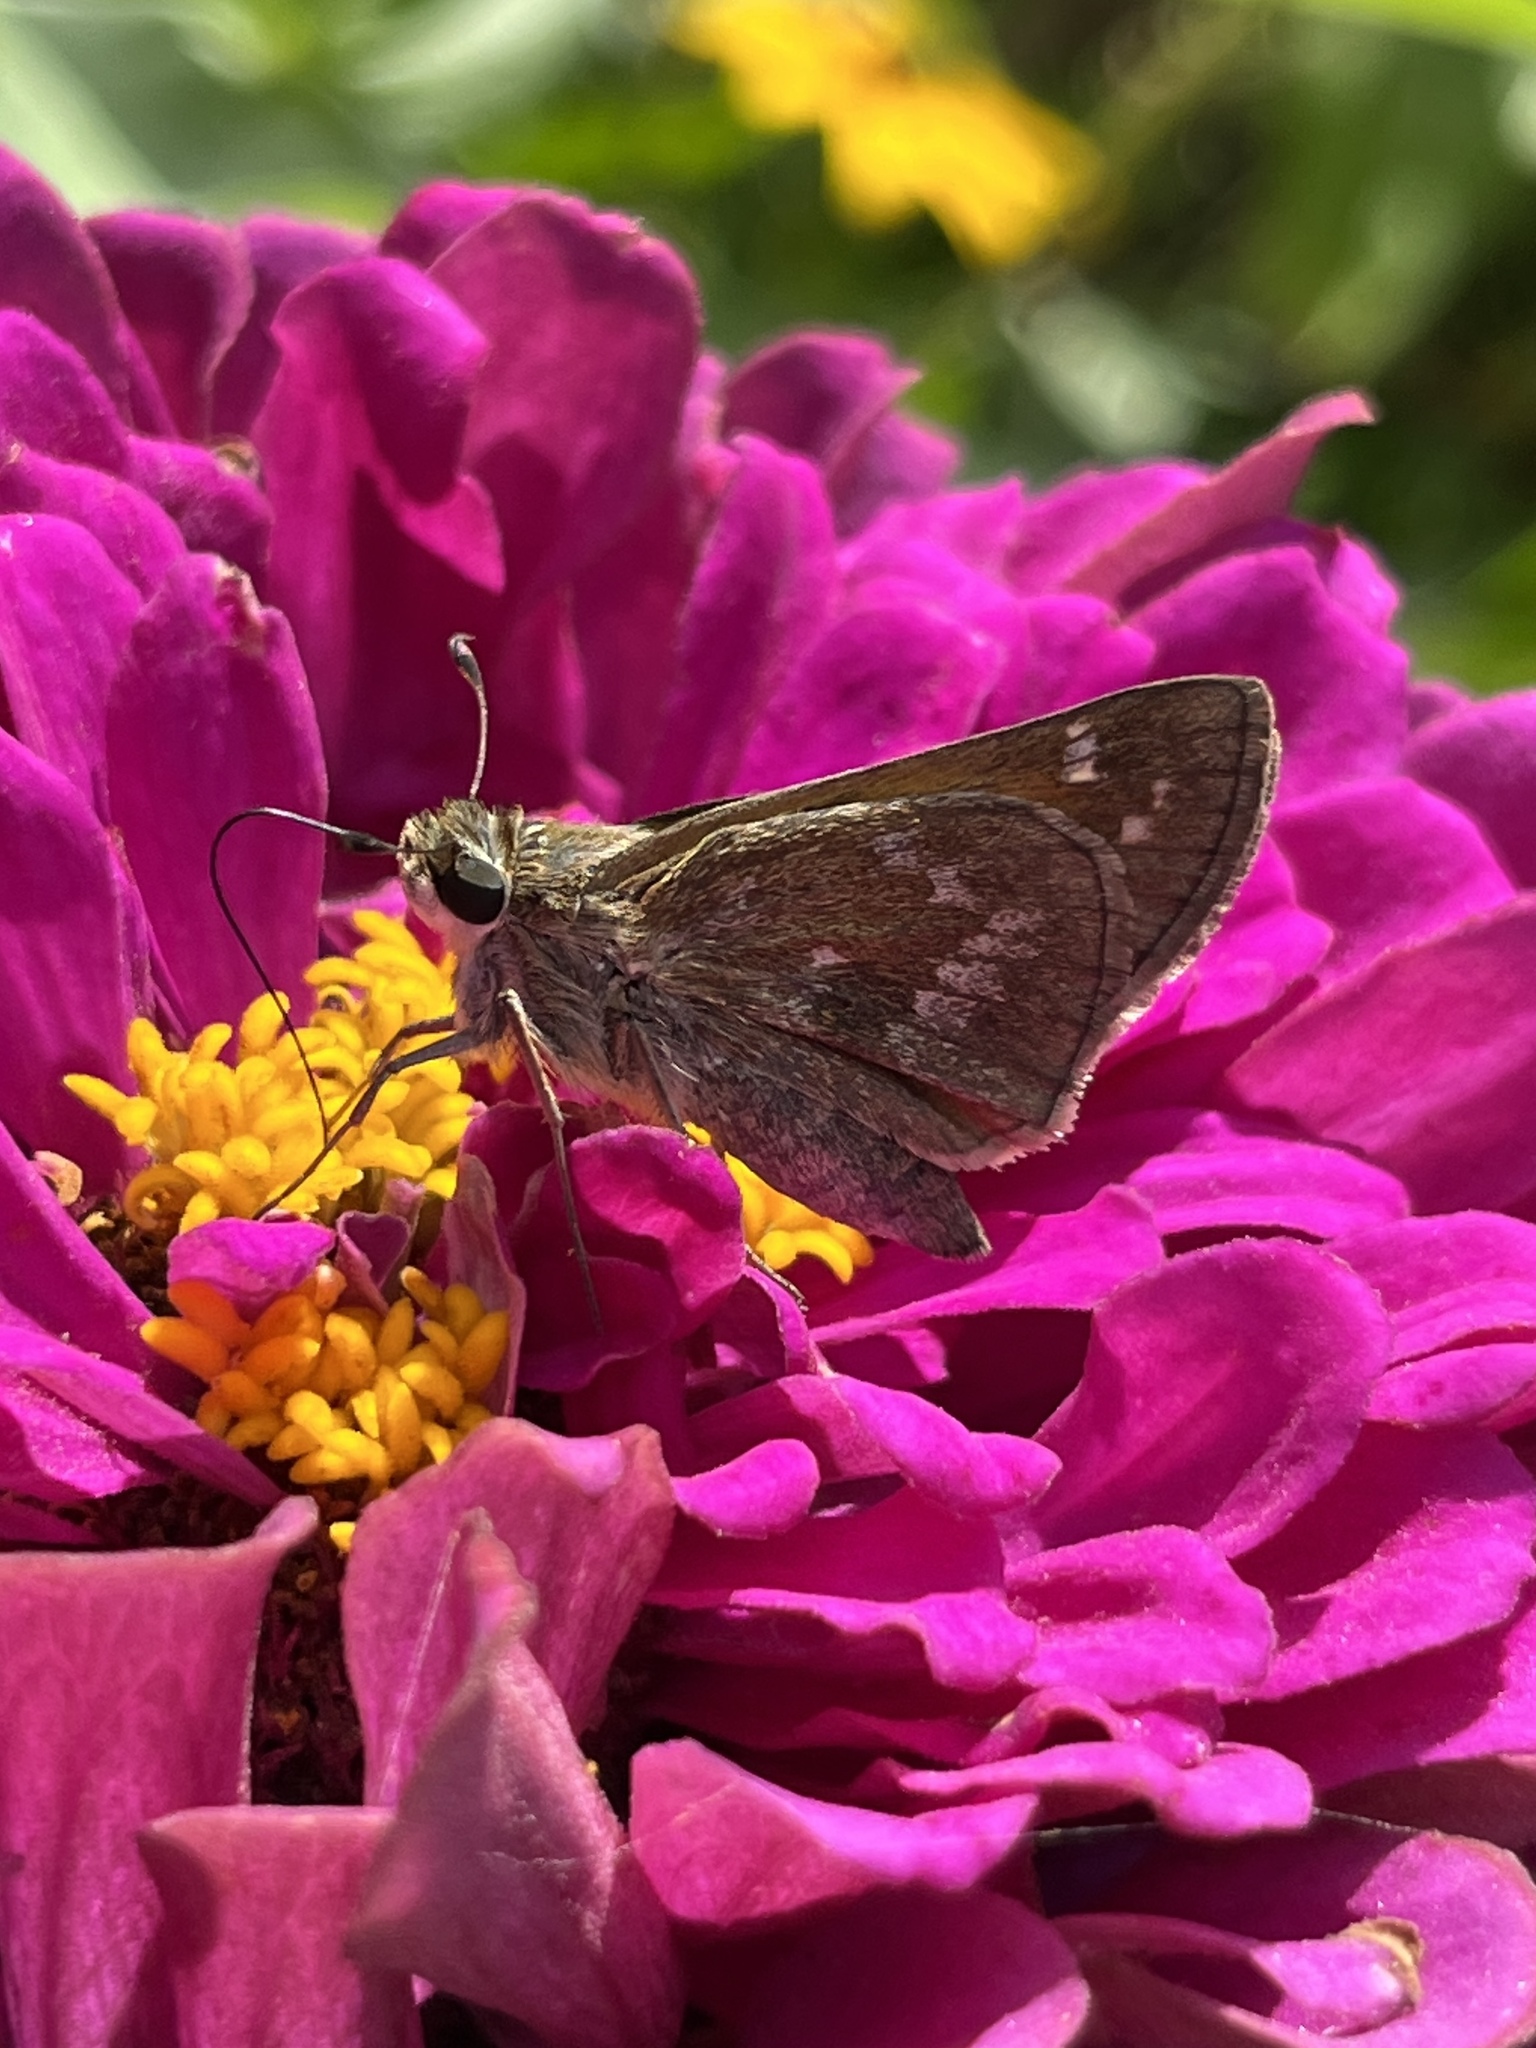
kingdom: Animalia
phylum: Arthropoda
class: Insecta
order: Lepidoptera
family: Hesperiidae
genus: Atalopedes
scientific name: Atalopedes
